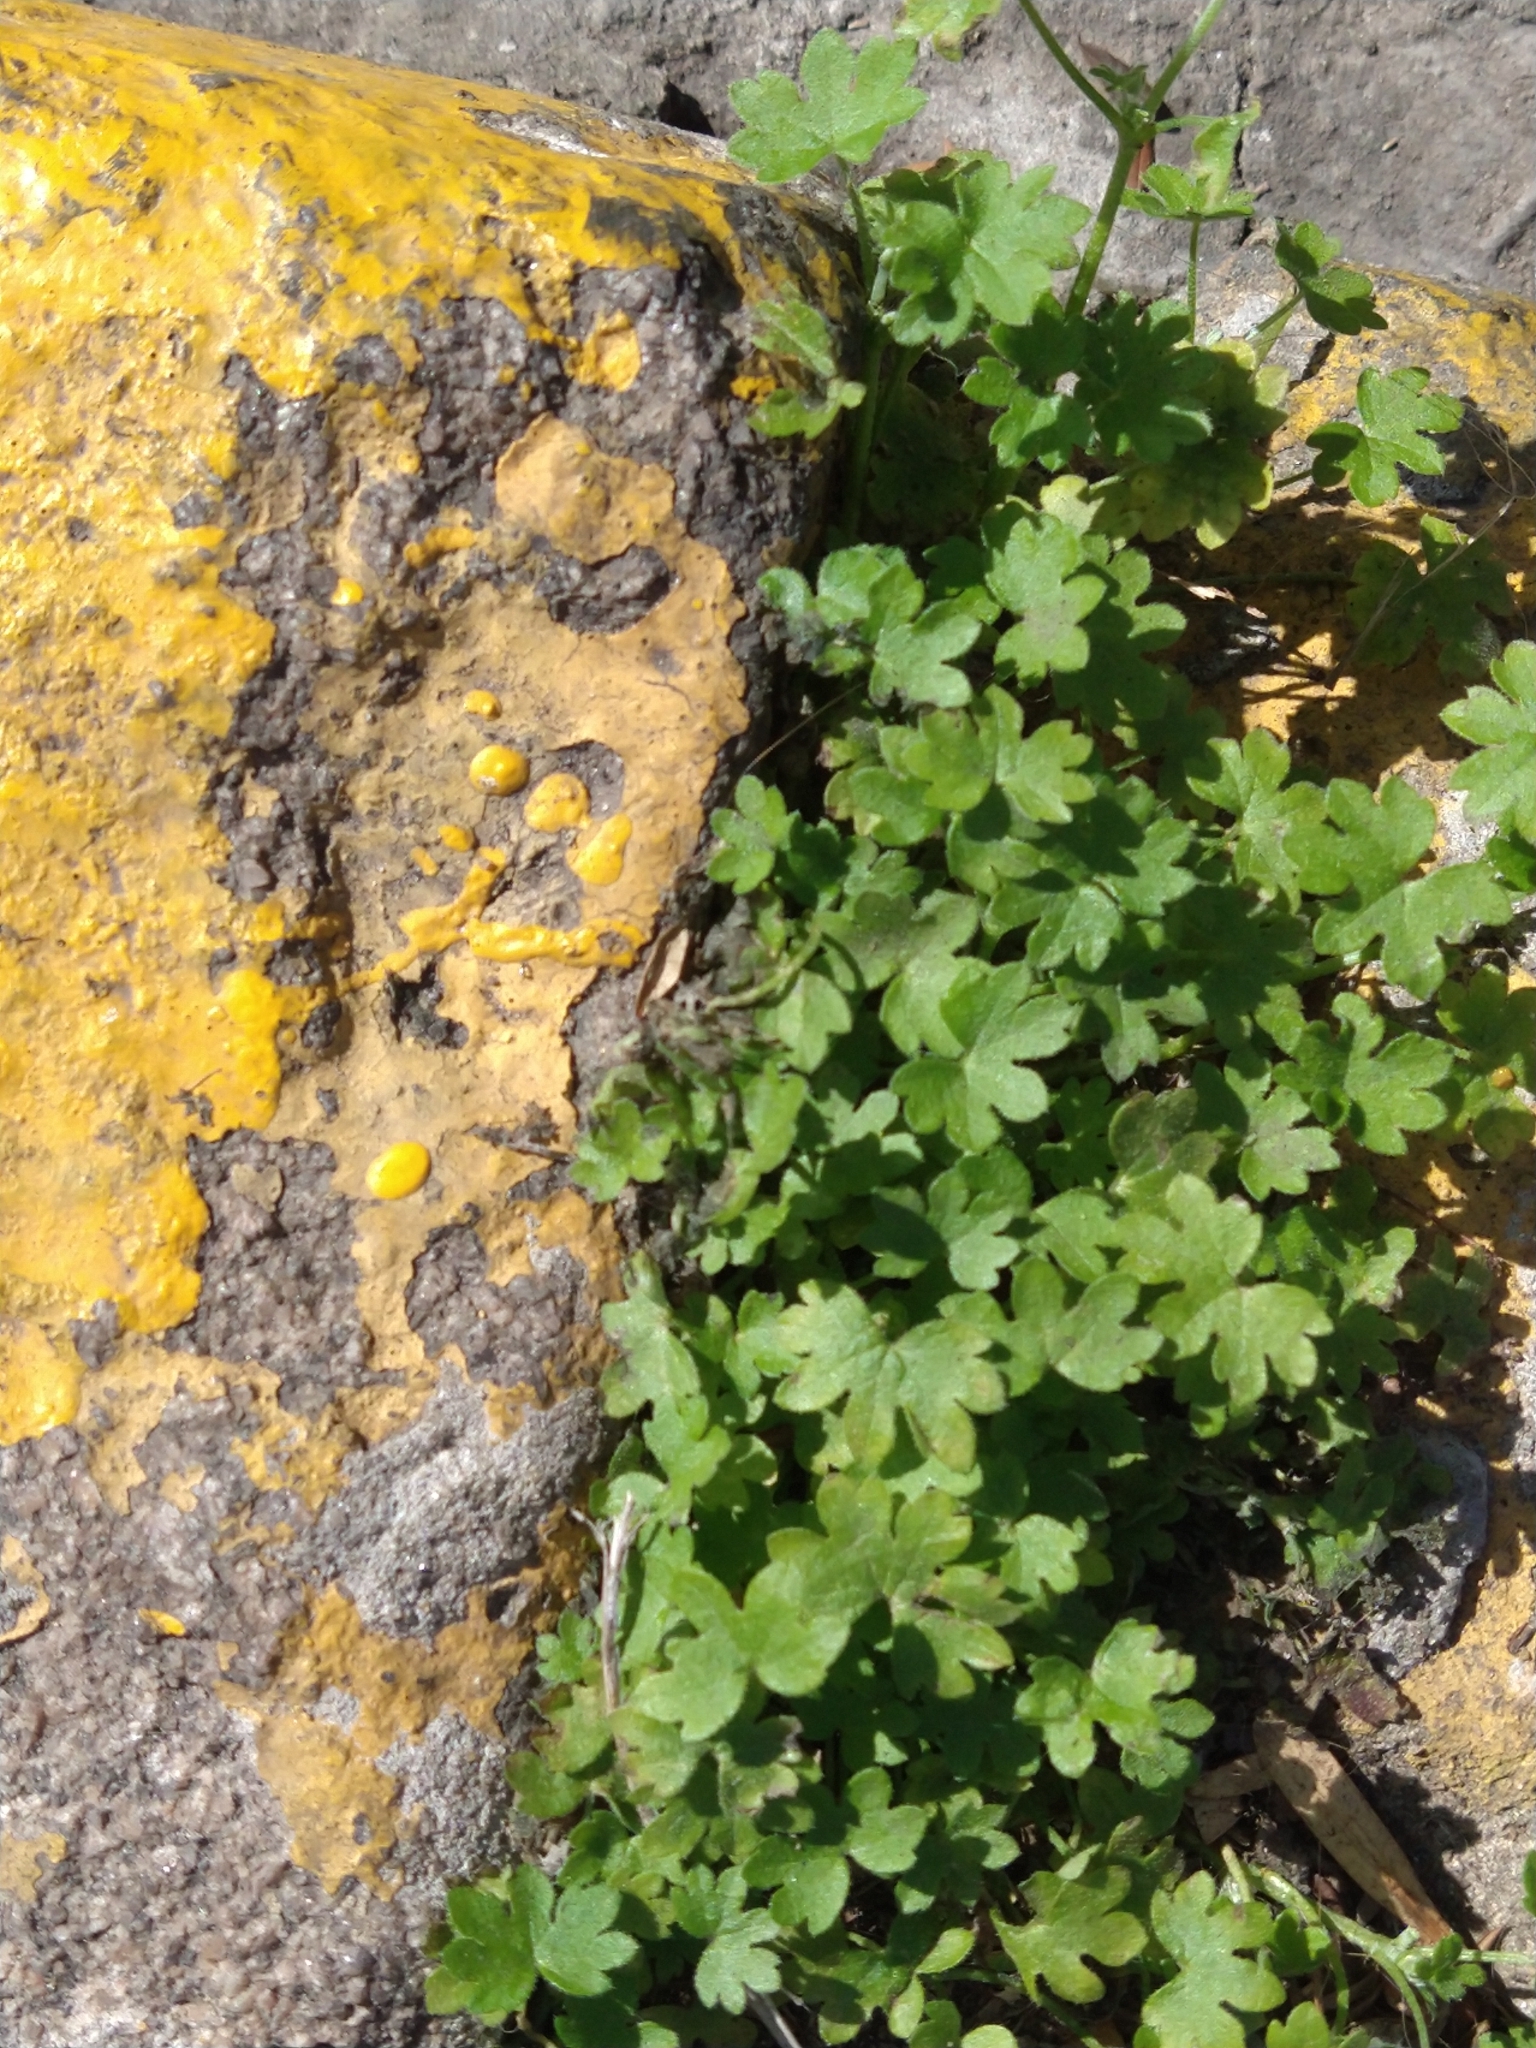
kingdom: Plantae
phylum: Tracheophyta
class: Magnoliopsida
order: Apiales
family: Apiaceae
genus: Bowlesia
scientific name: Bowlesia incana
